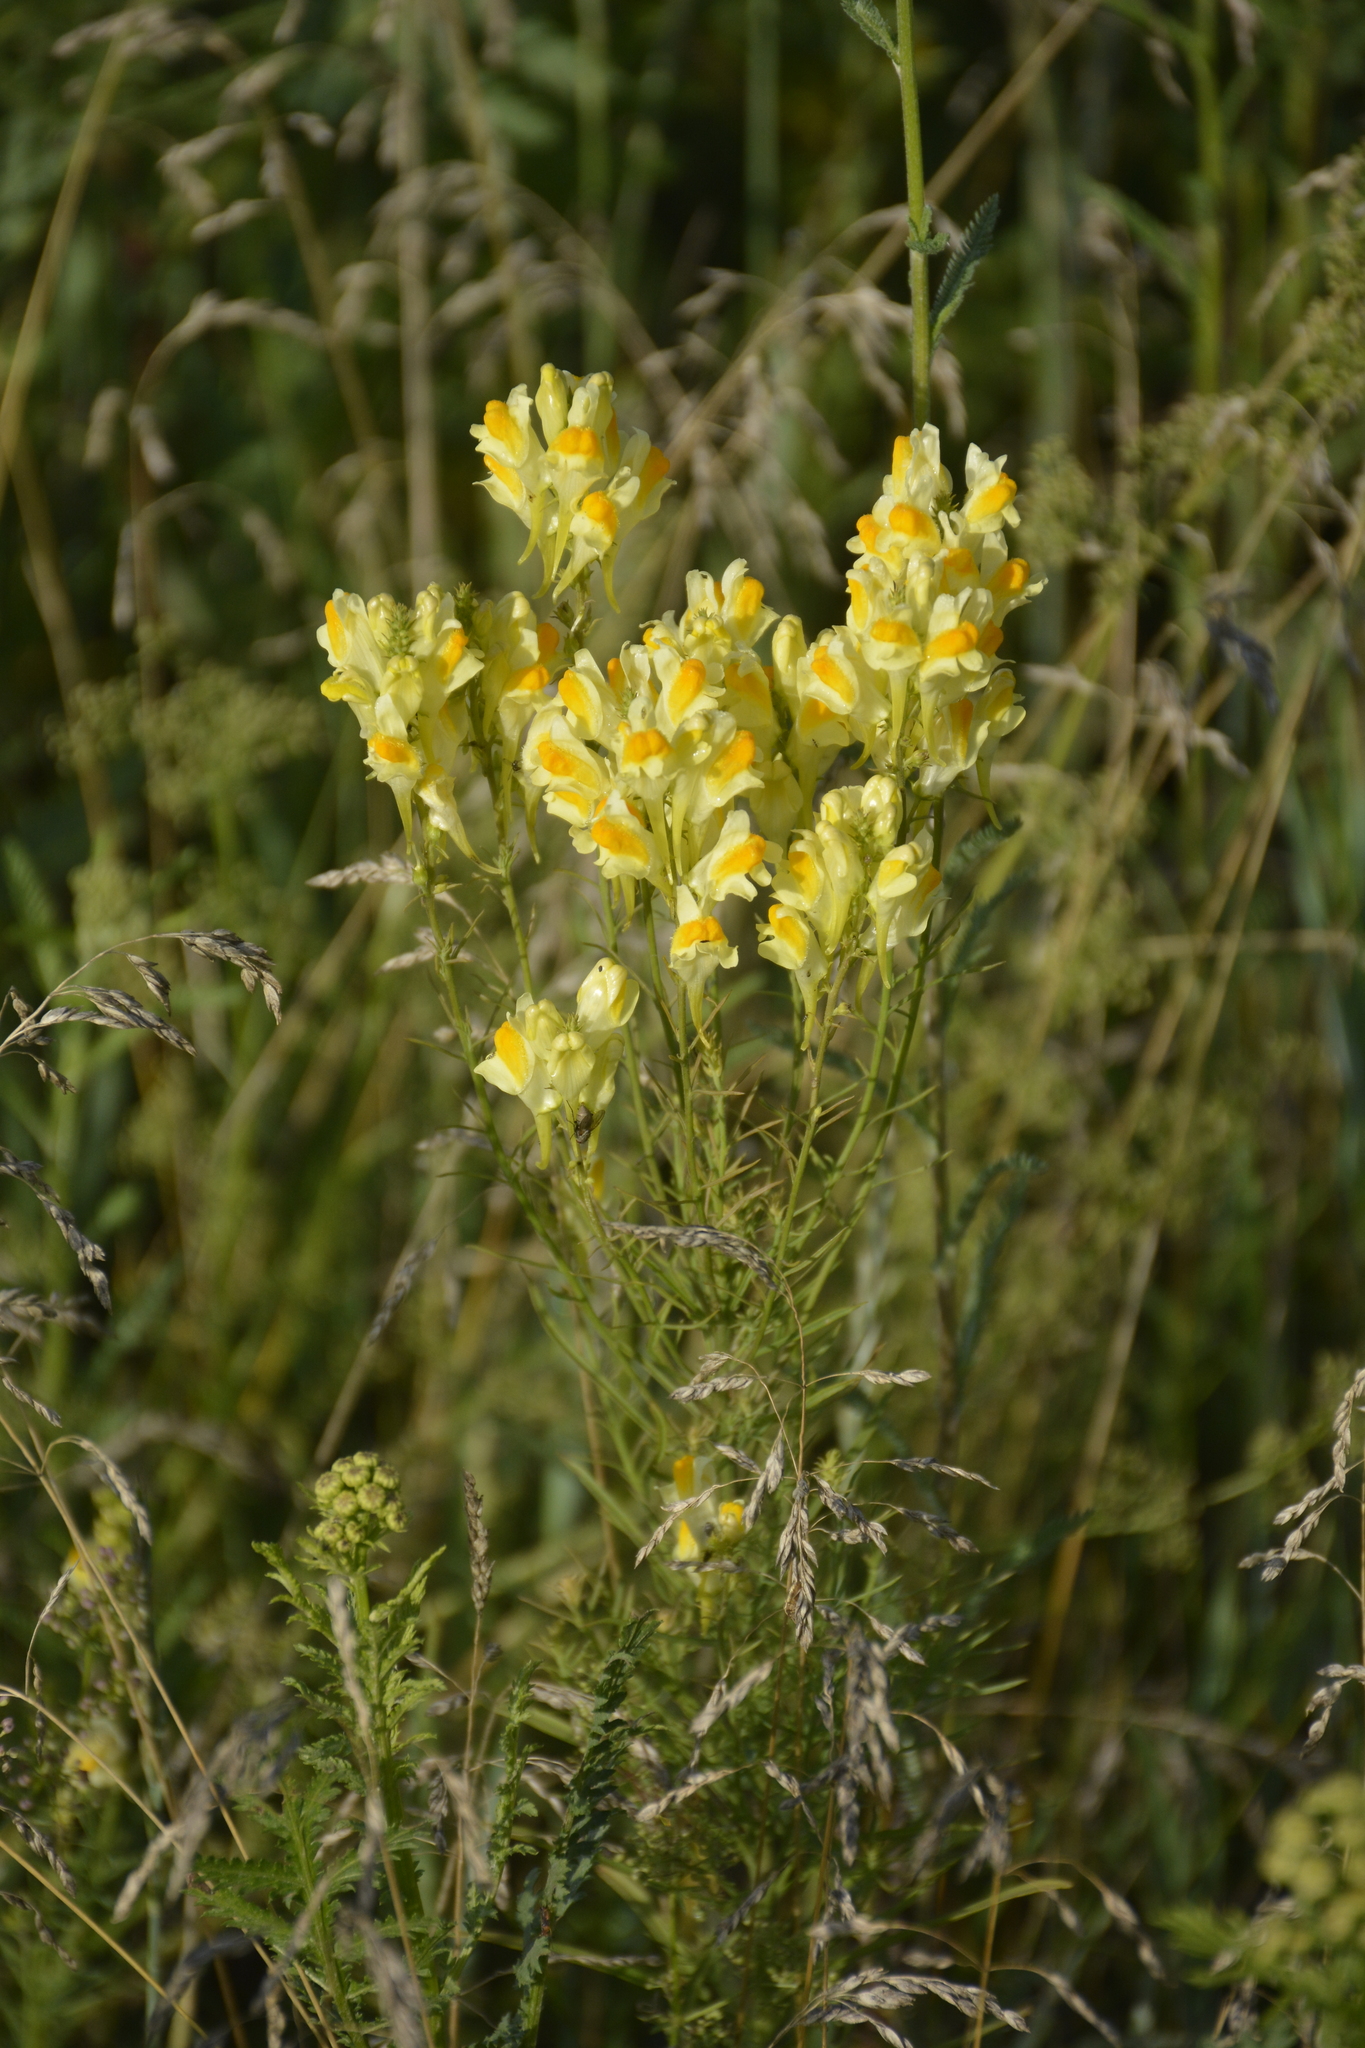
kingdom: Plantae
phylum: Tracheophyta
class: Magnoliopsida
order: Lamiales
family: Plantaginaceae
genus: Linaria
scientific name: Linaria vulgaris
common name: Butter and eggs
